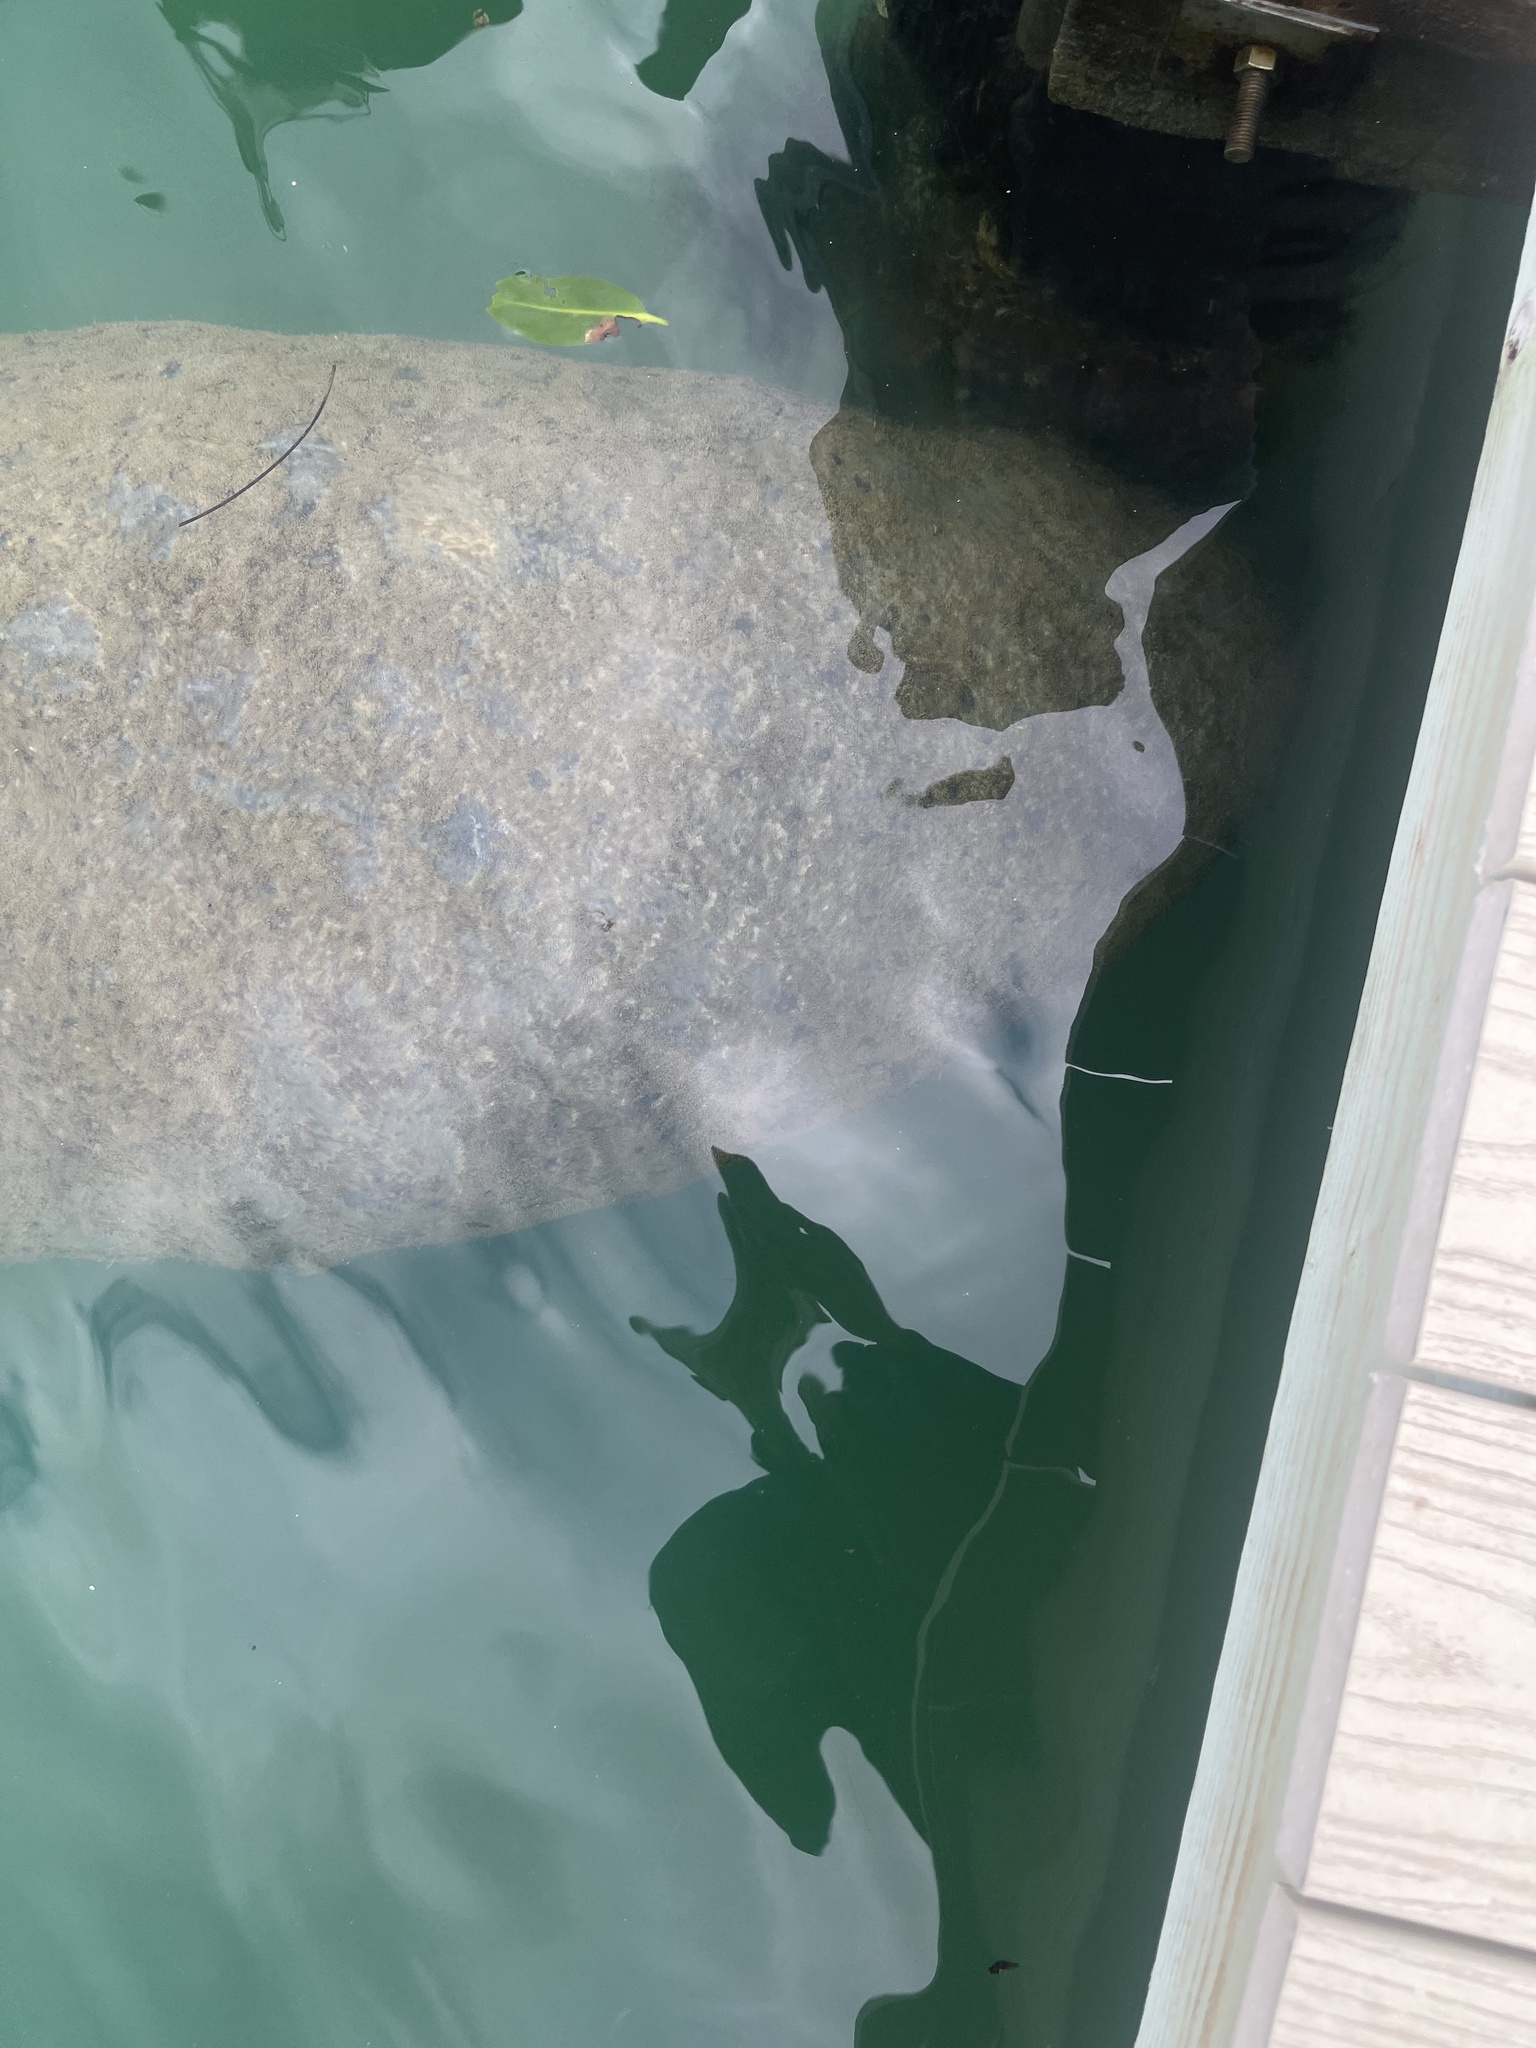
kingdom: Animalia
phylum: Chordata
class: Mammalia
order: Sirenia
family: Trichechidae
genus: Trichechus
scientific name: Trichechus manatus
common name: West indian manatee
